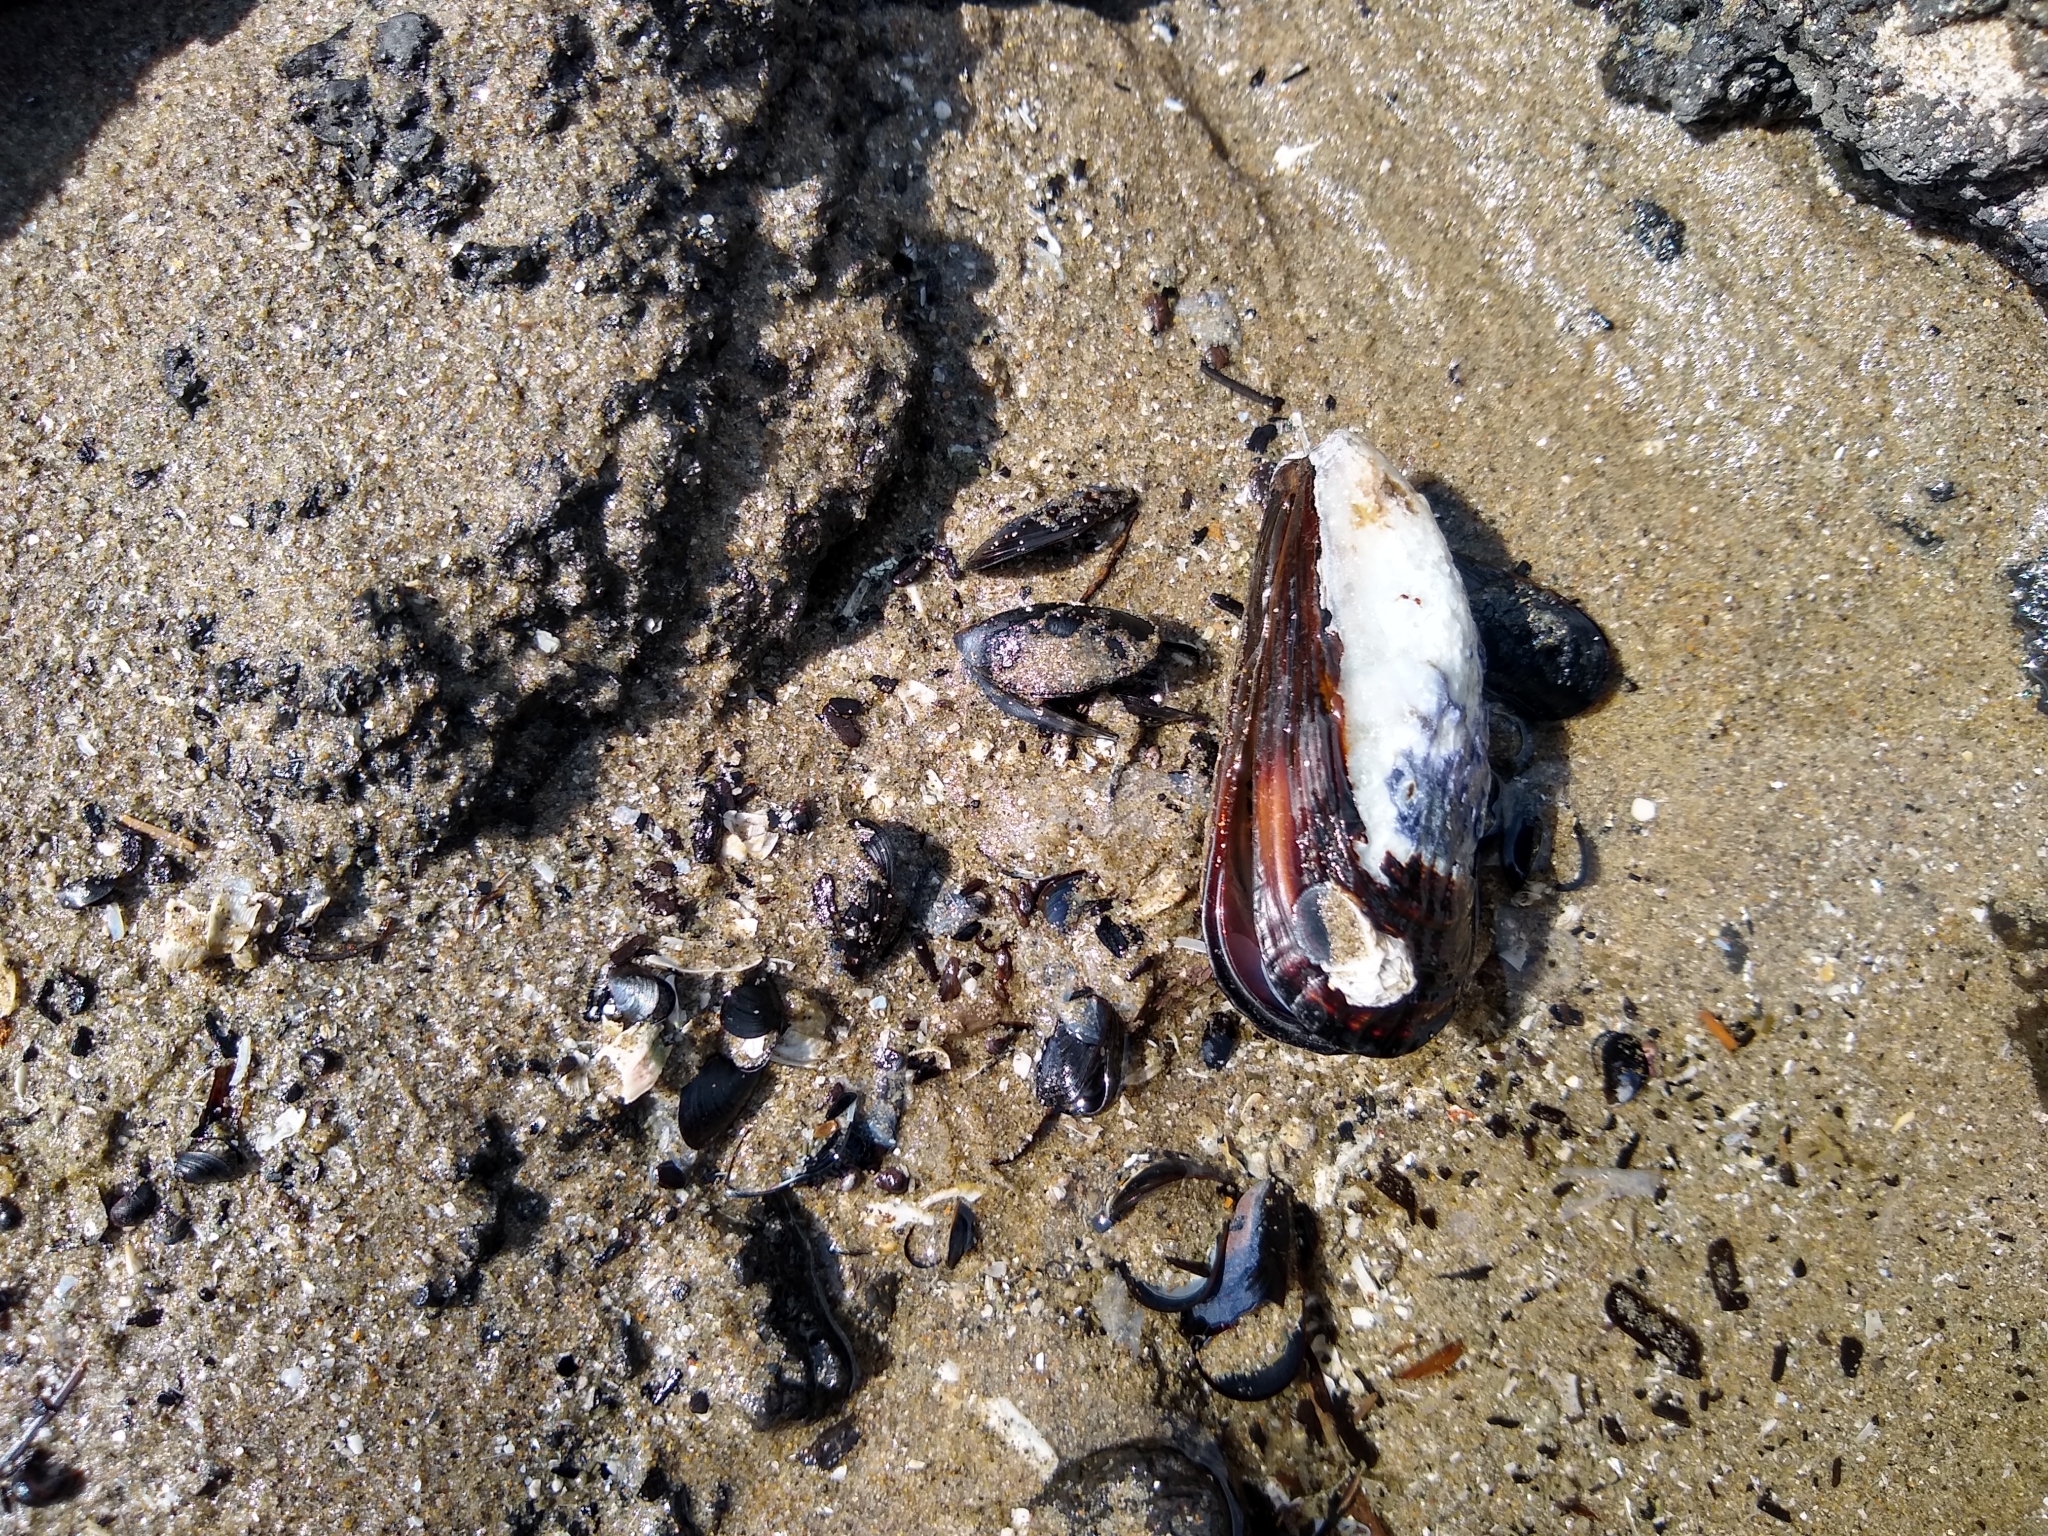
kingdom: Animalia
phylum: Mollusca
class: Bivalvia
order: Mytilida
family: Mytilidae
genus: Mytilus
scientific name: Mytilus californianus
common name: California mussel
